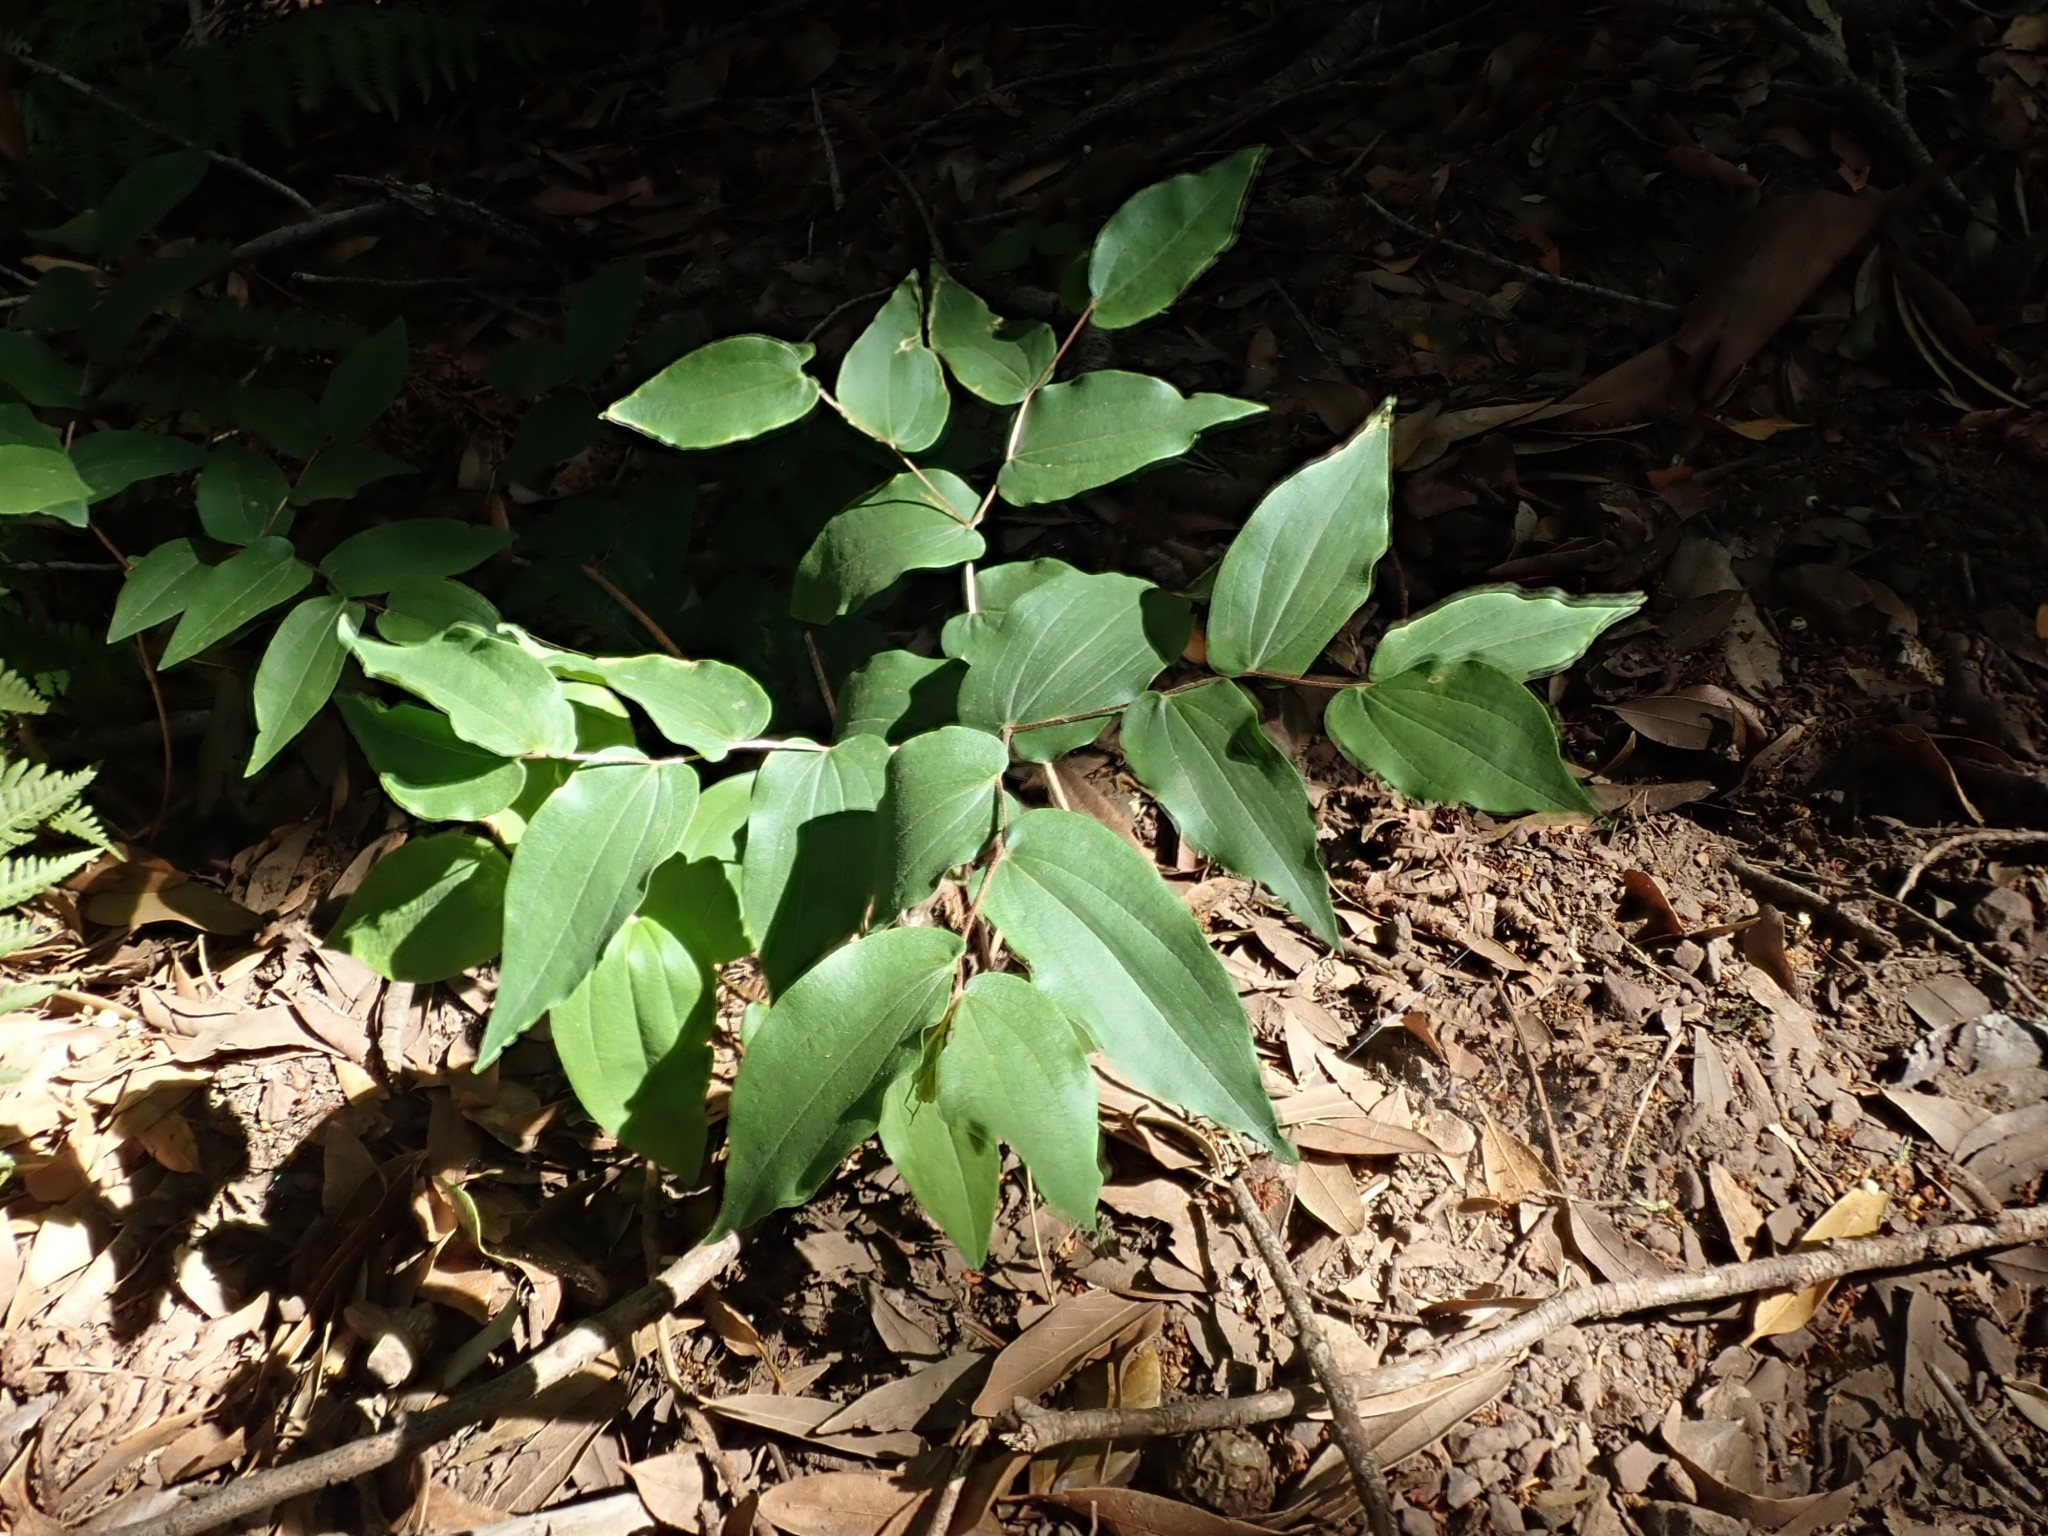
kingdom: Plantae
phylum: Tracheophyta
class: Liliopsida
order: Liliales
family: Liliaceae
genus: Prosartes
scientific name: Prosartes hookeri
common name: Fairy-bells
